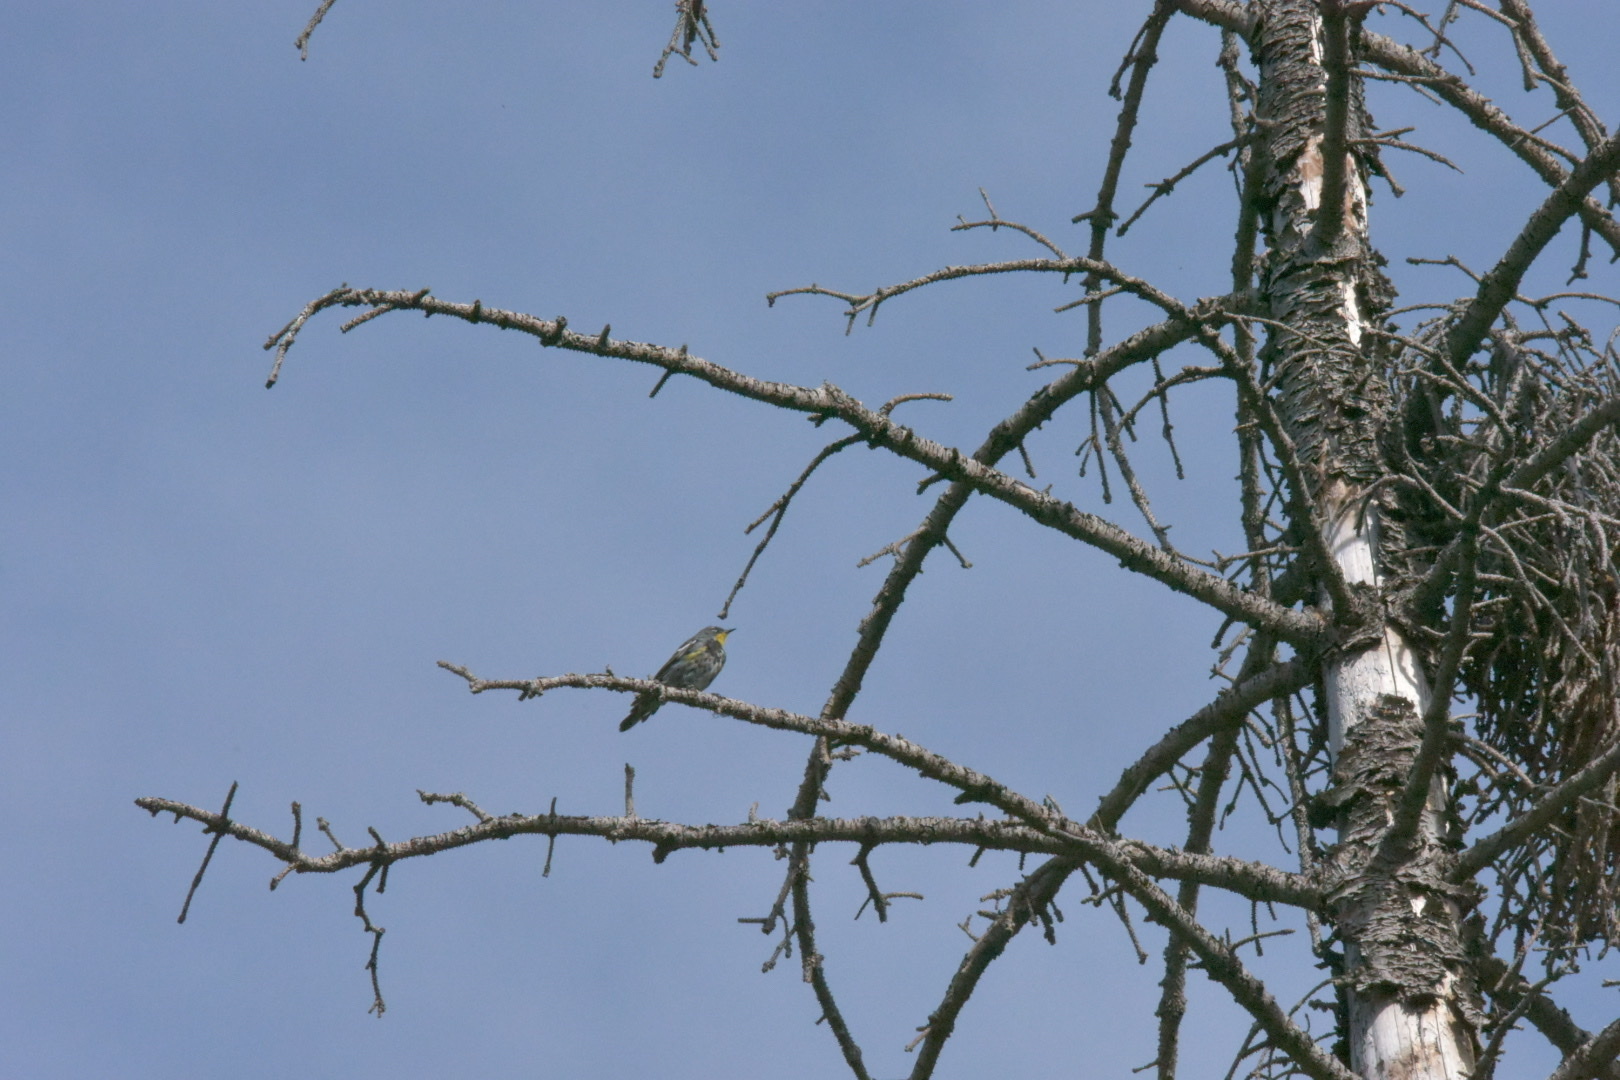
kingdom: Animalia
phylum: Chordata
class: Aves
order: Passeriformes
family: Parulidae
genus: Setophaga
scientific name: Setophaga auduboni
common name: Audubon's warbler
